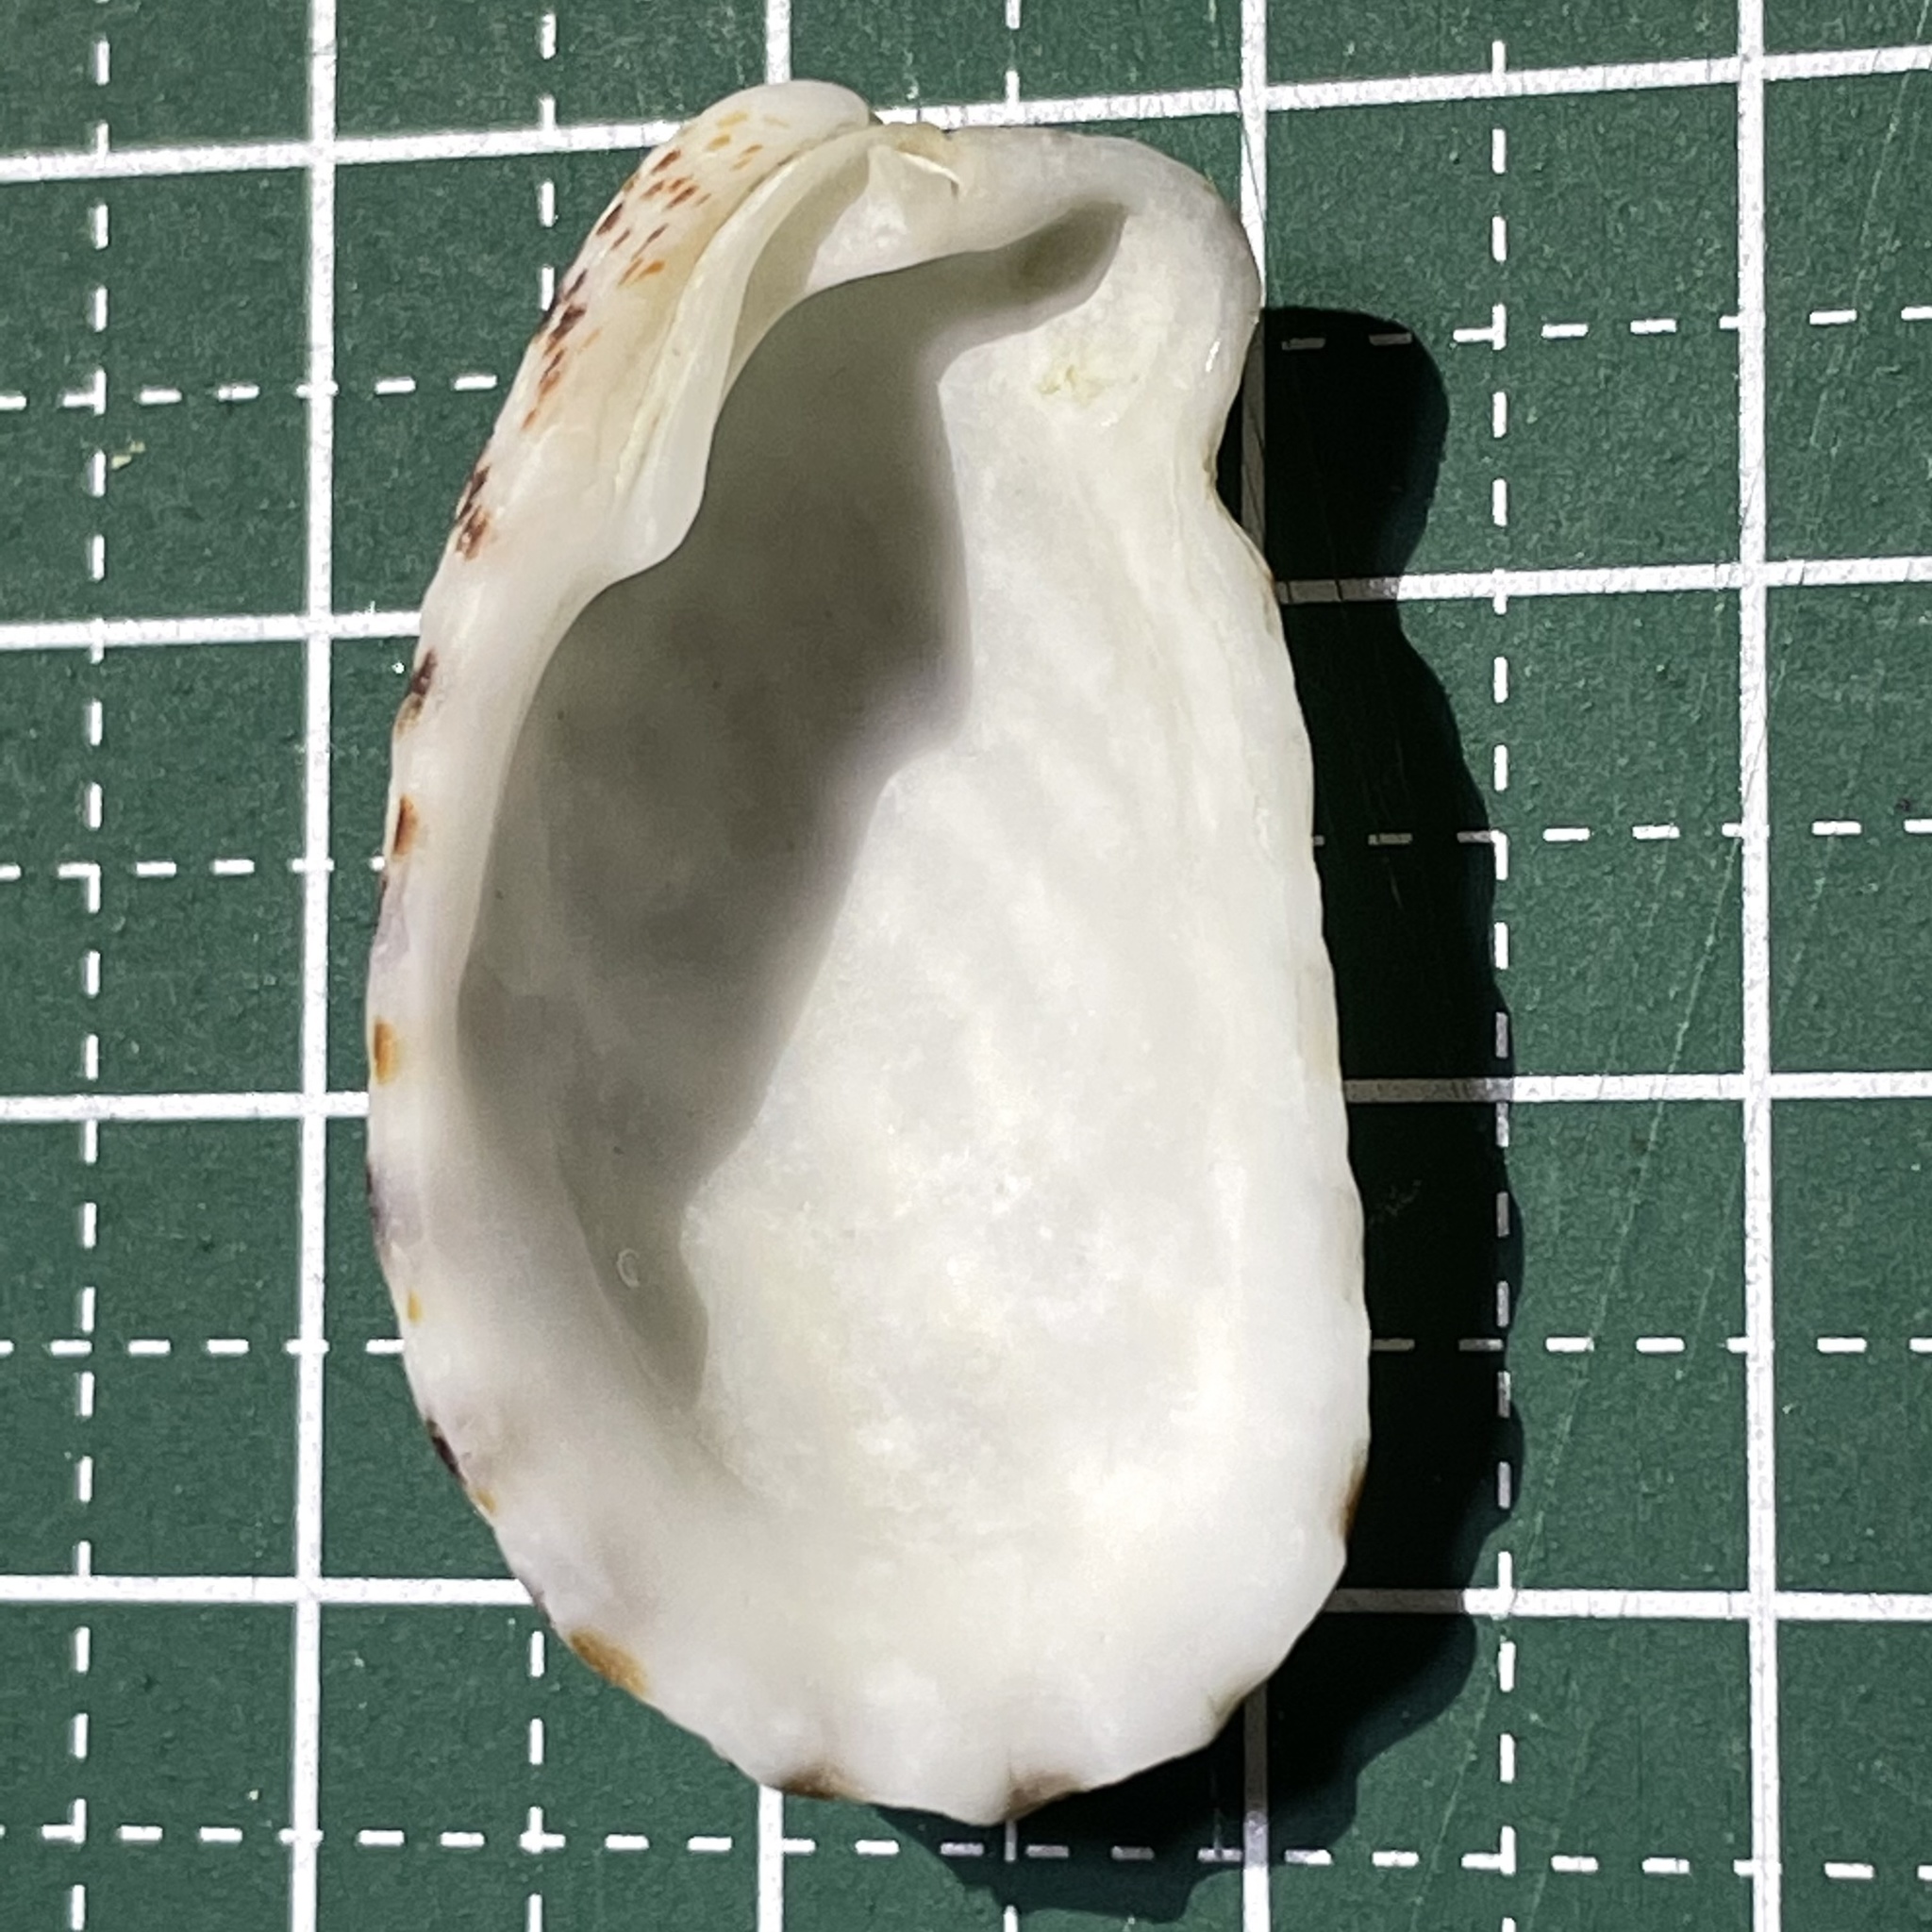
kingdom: Animalia
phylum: Mollusca
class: Bivalvia
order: Carditida
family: Carditidae
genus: Cardita
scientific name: Cardita variegata
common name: Rectangular false cockle
